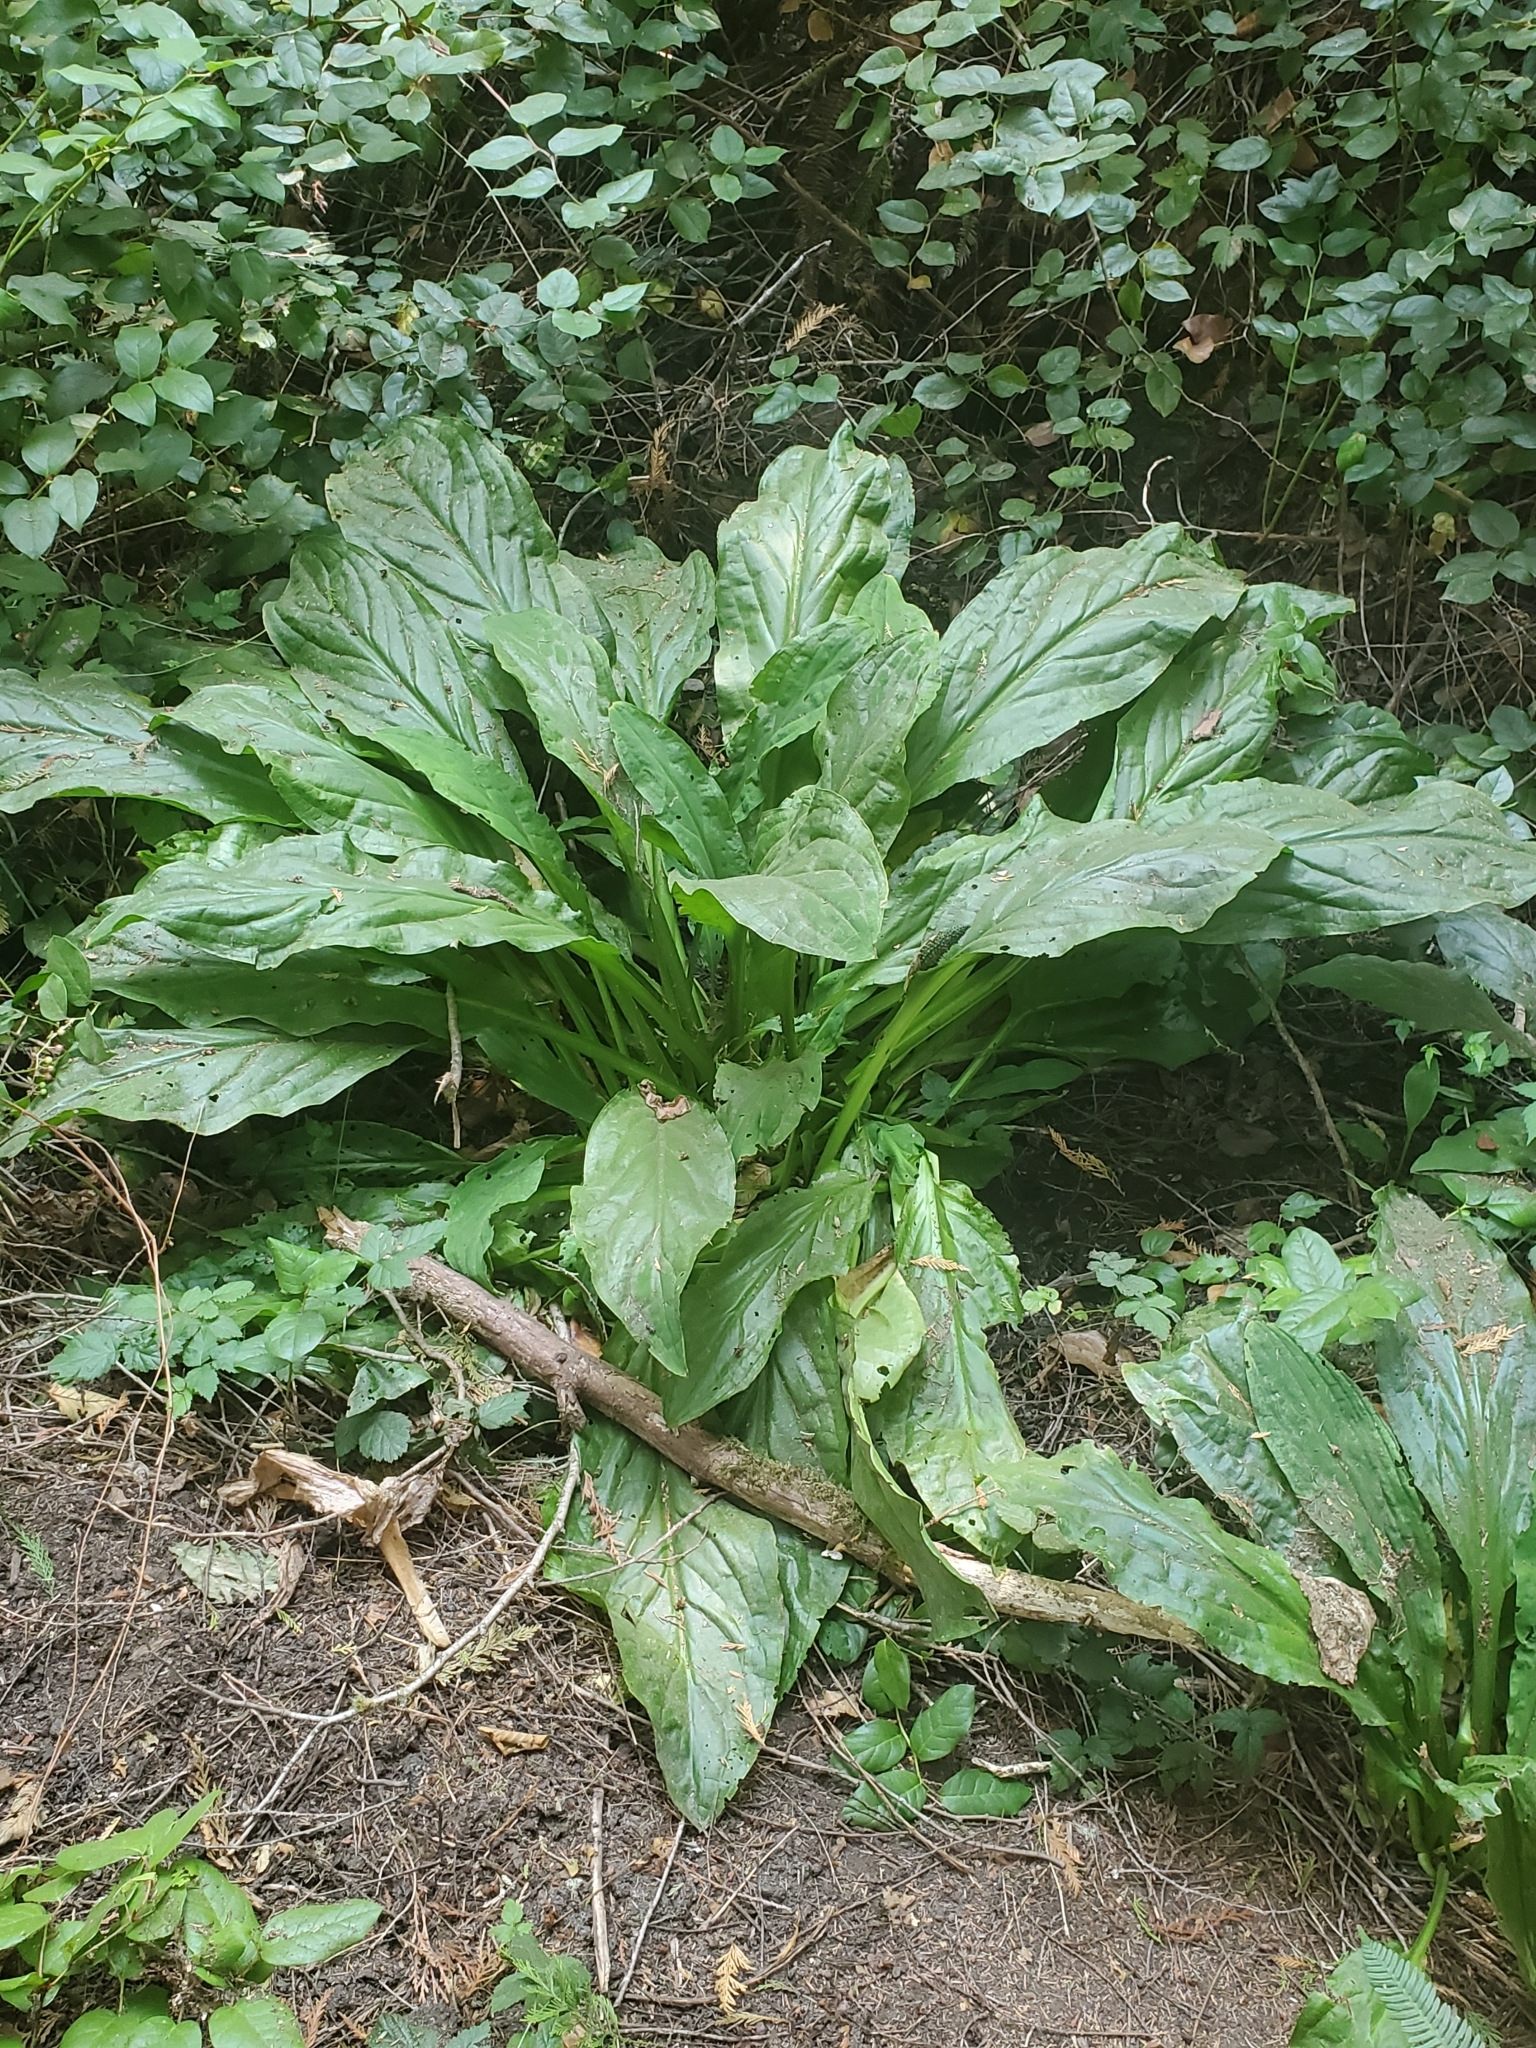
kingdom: Plantae
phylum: Tracheophyta
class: Liliopsida
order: Alismatales
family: Araceae
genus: Lysichiton
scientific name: Lysichiton americanus
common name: American skunk cabbage
